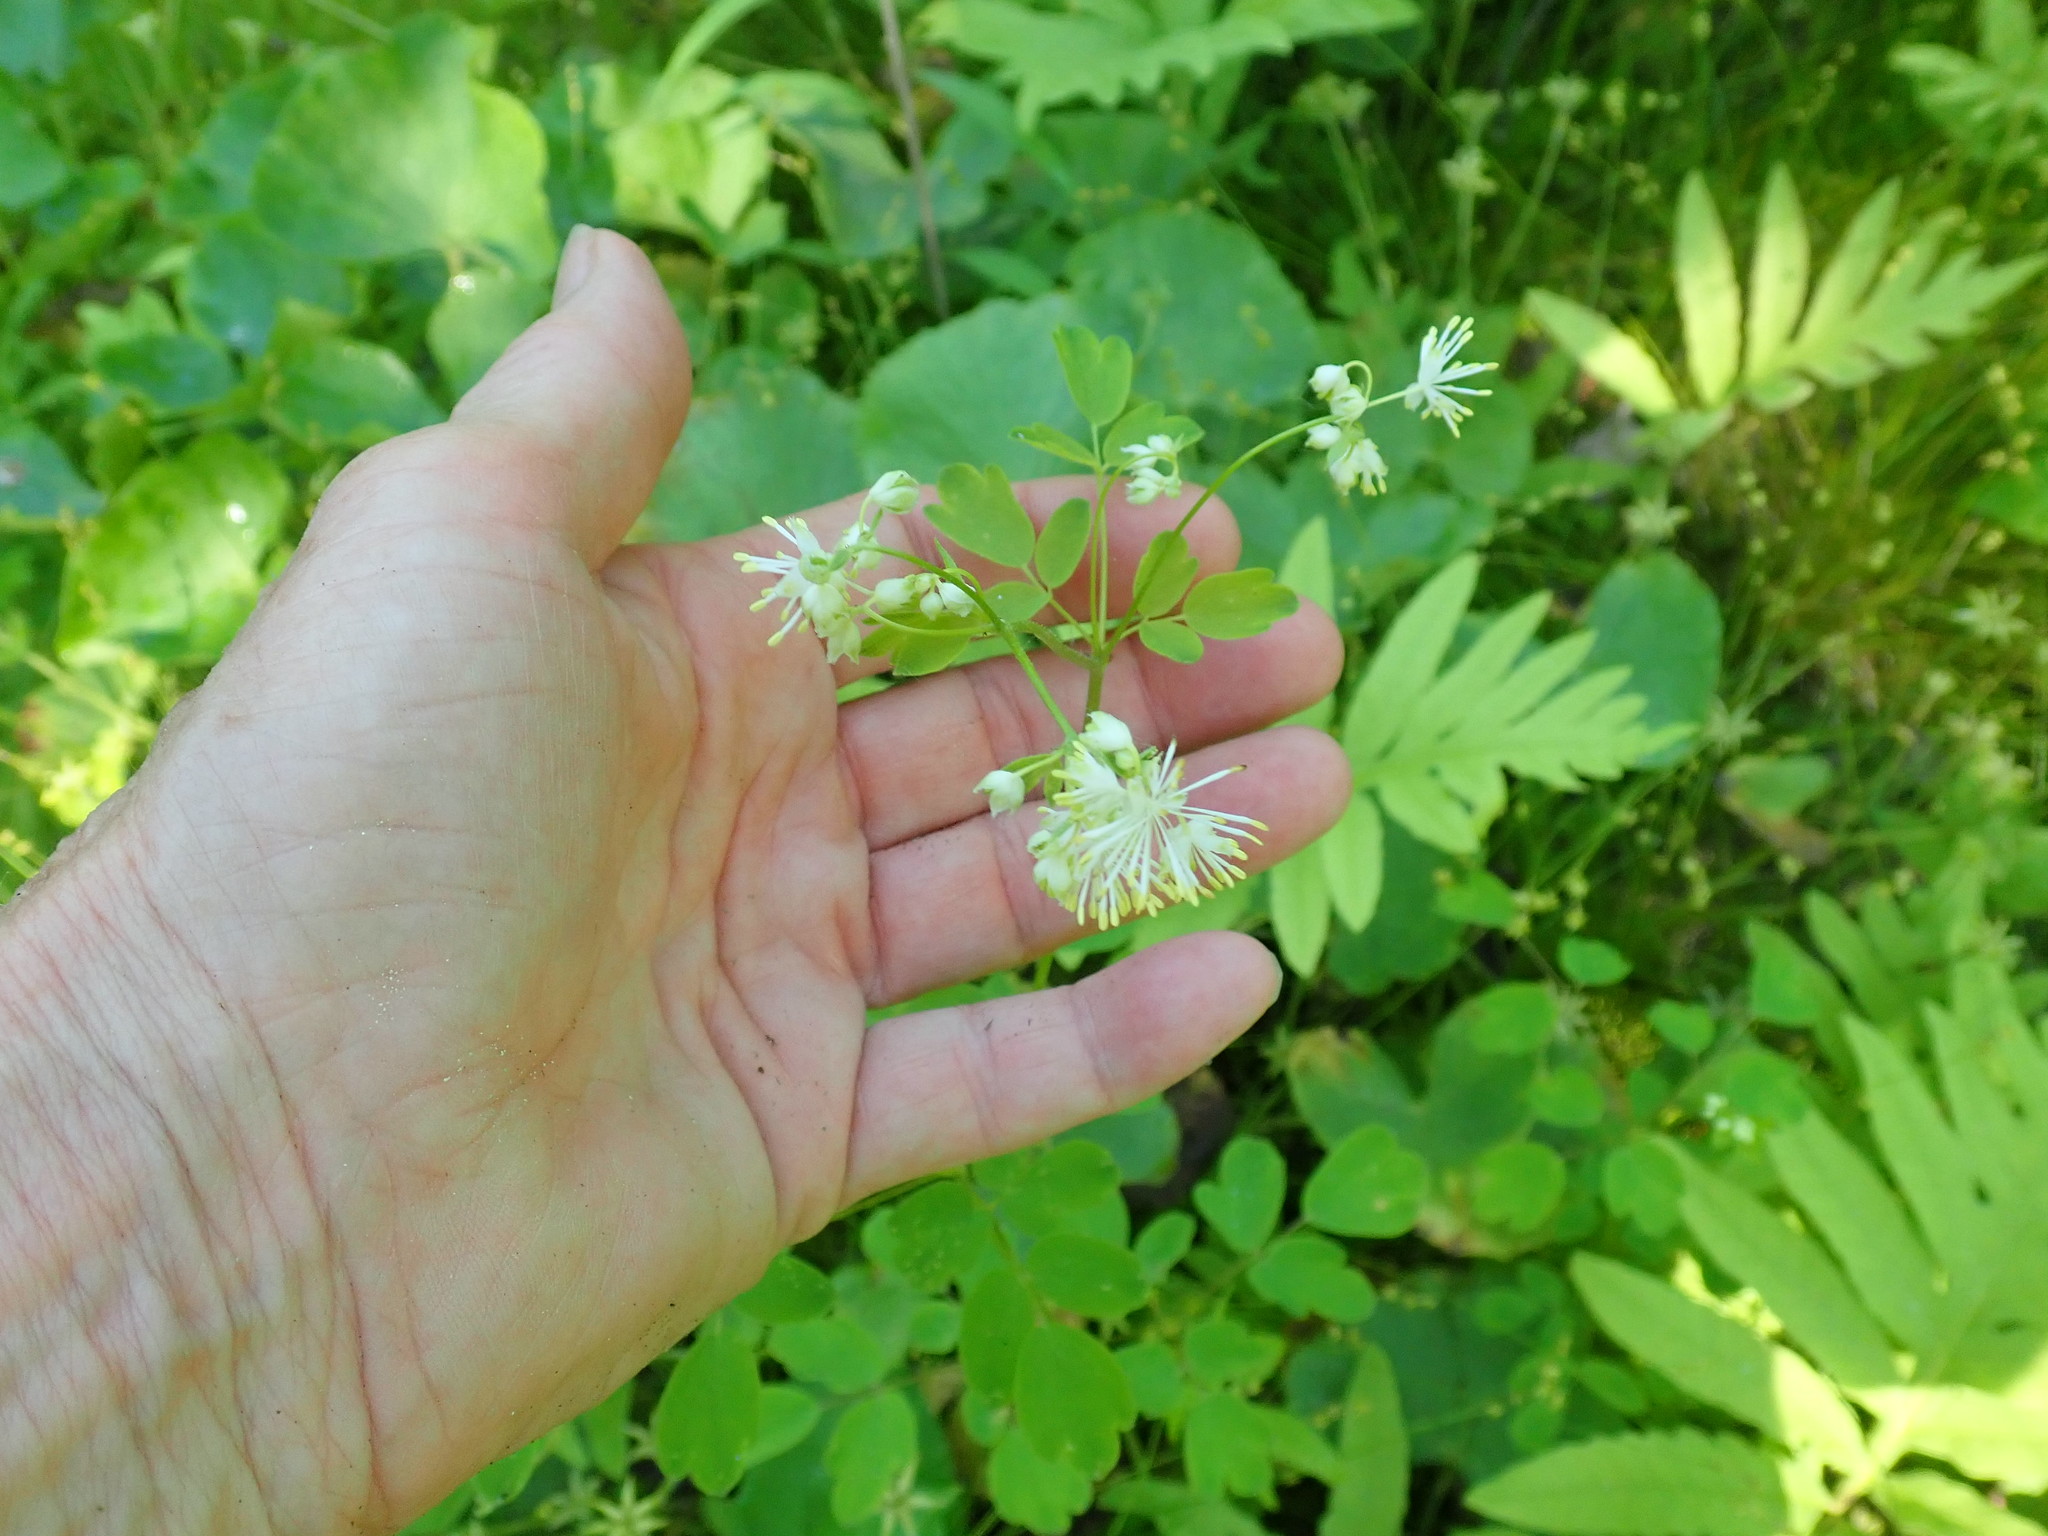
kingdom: Plantae
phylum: Tracheophyta
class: Magnoliopsida
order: Ranunculales
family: Ranunculaceae
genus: Thalictrum
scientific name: Thalictrum pubescens
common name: King-of-the-meadow
